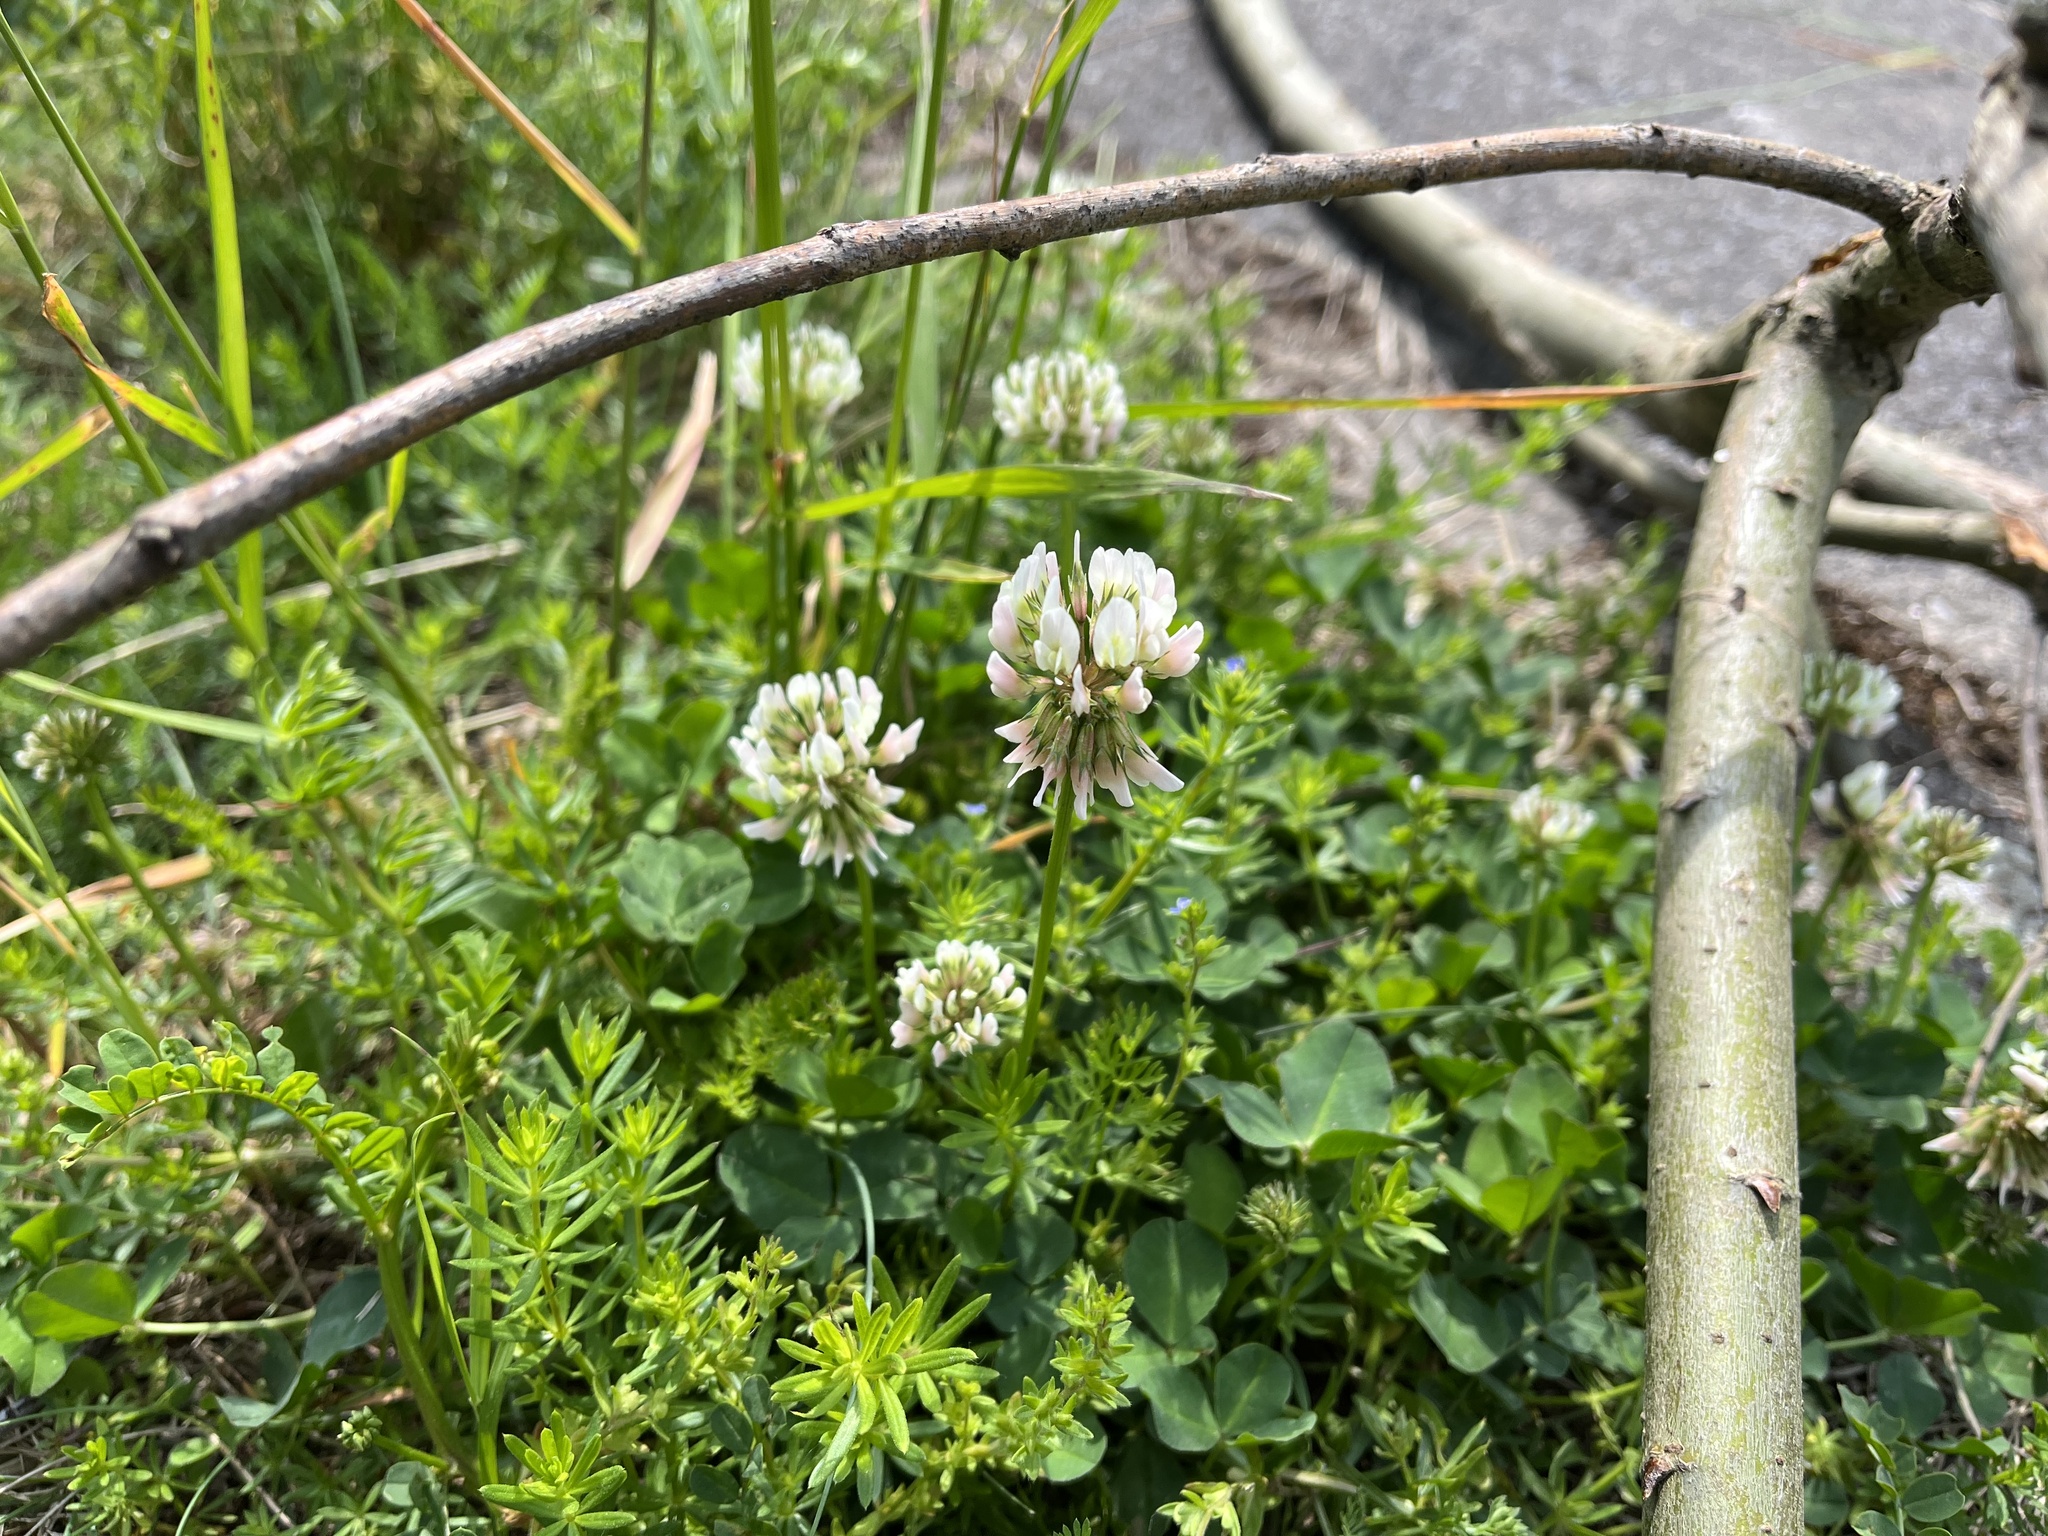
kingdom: Plantae
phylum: Tracheophyta
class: Magnoliopsida
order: Fabales
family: Fabaceae
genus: Trifolium
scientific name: Trifolium repens
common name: White clover
